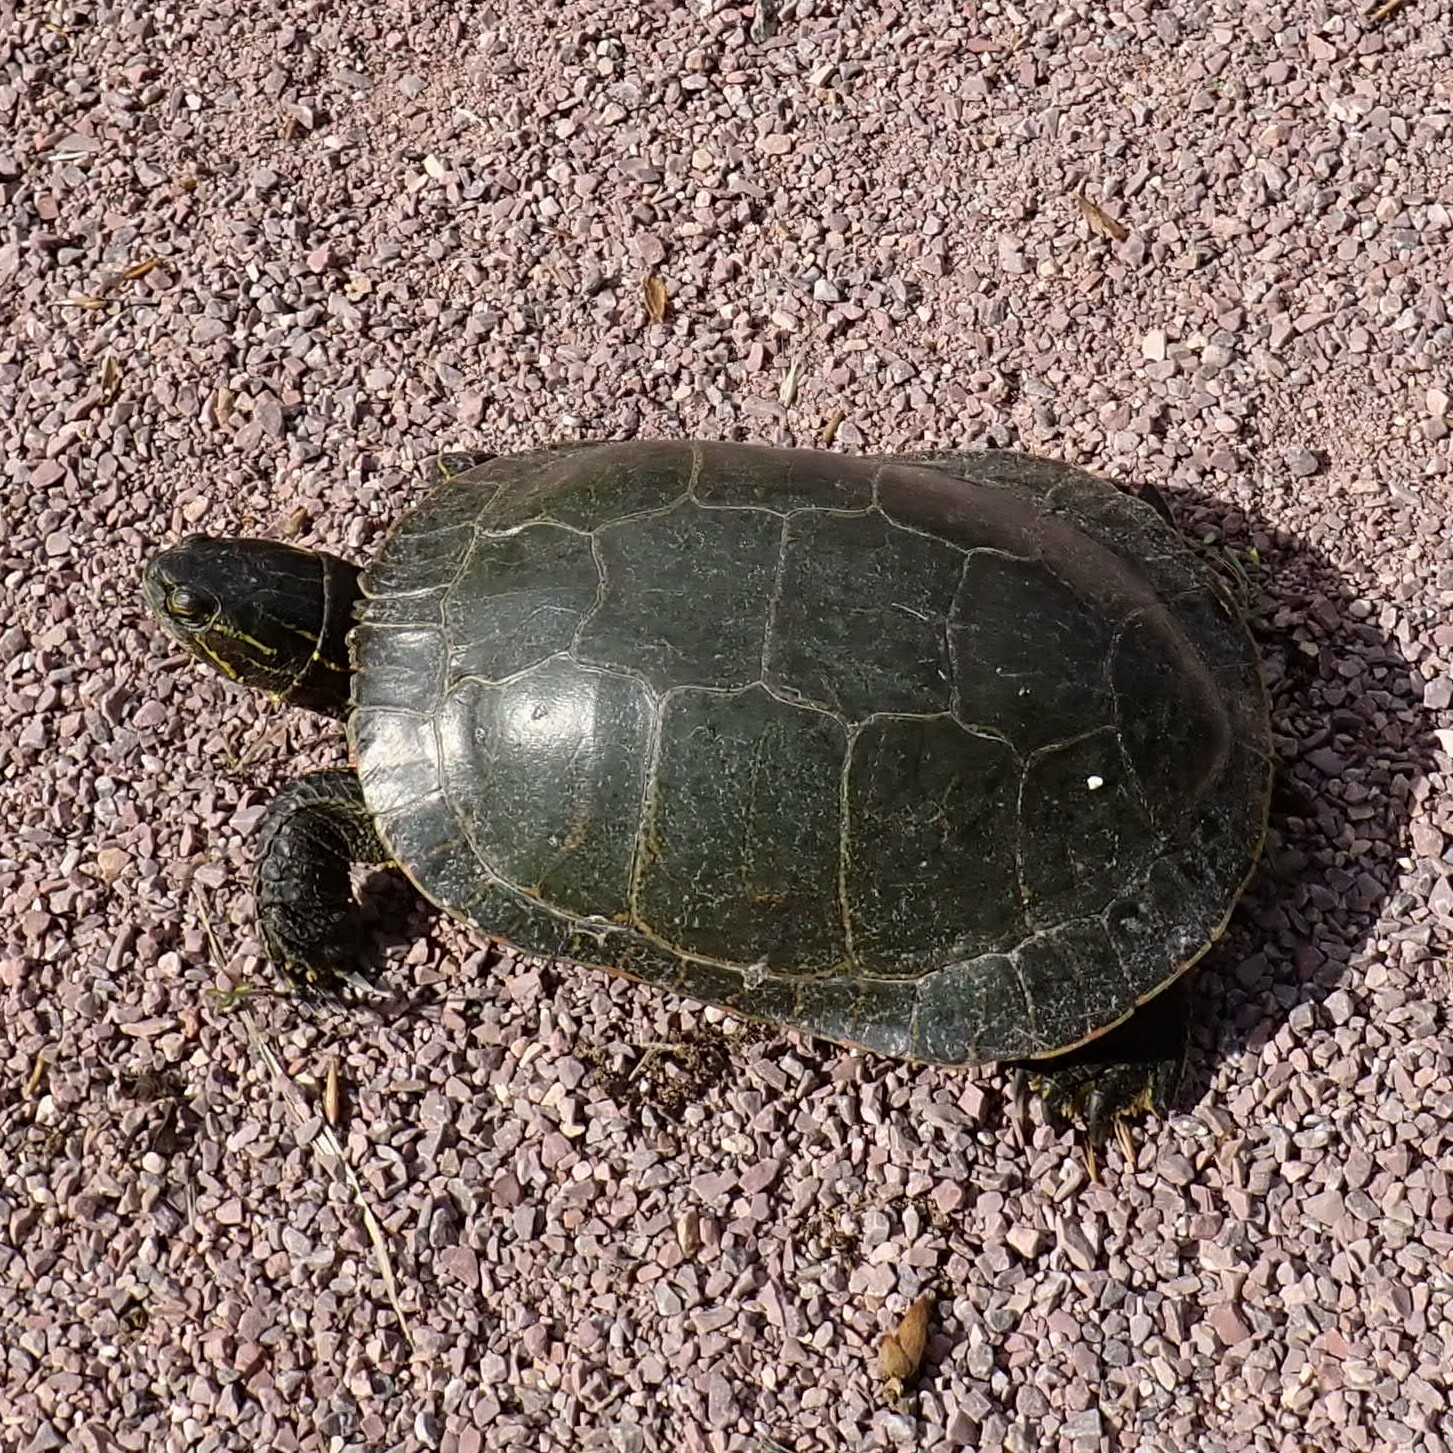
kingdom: Animalia
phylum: Chordata
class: Testudines
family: Emydidae
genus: Chrysemys
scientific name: Chrysemys picta
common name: Painted turtle
